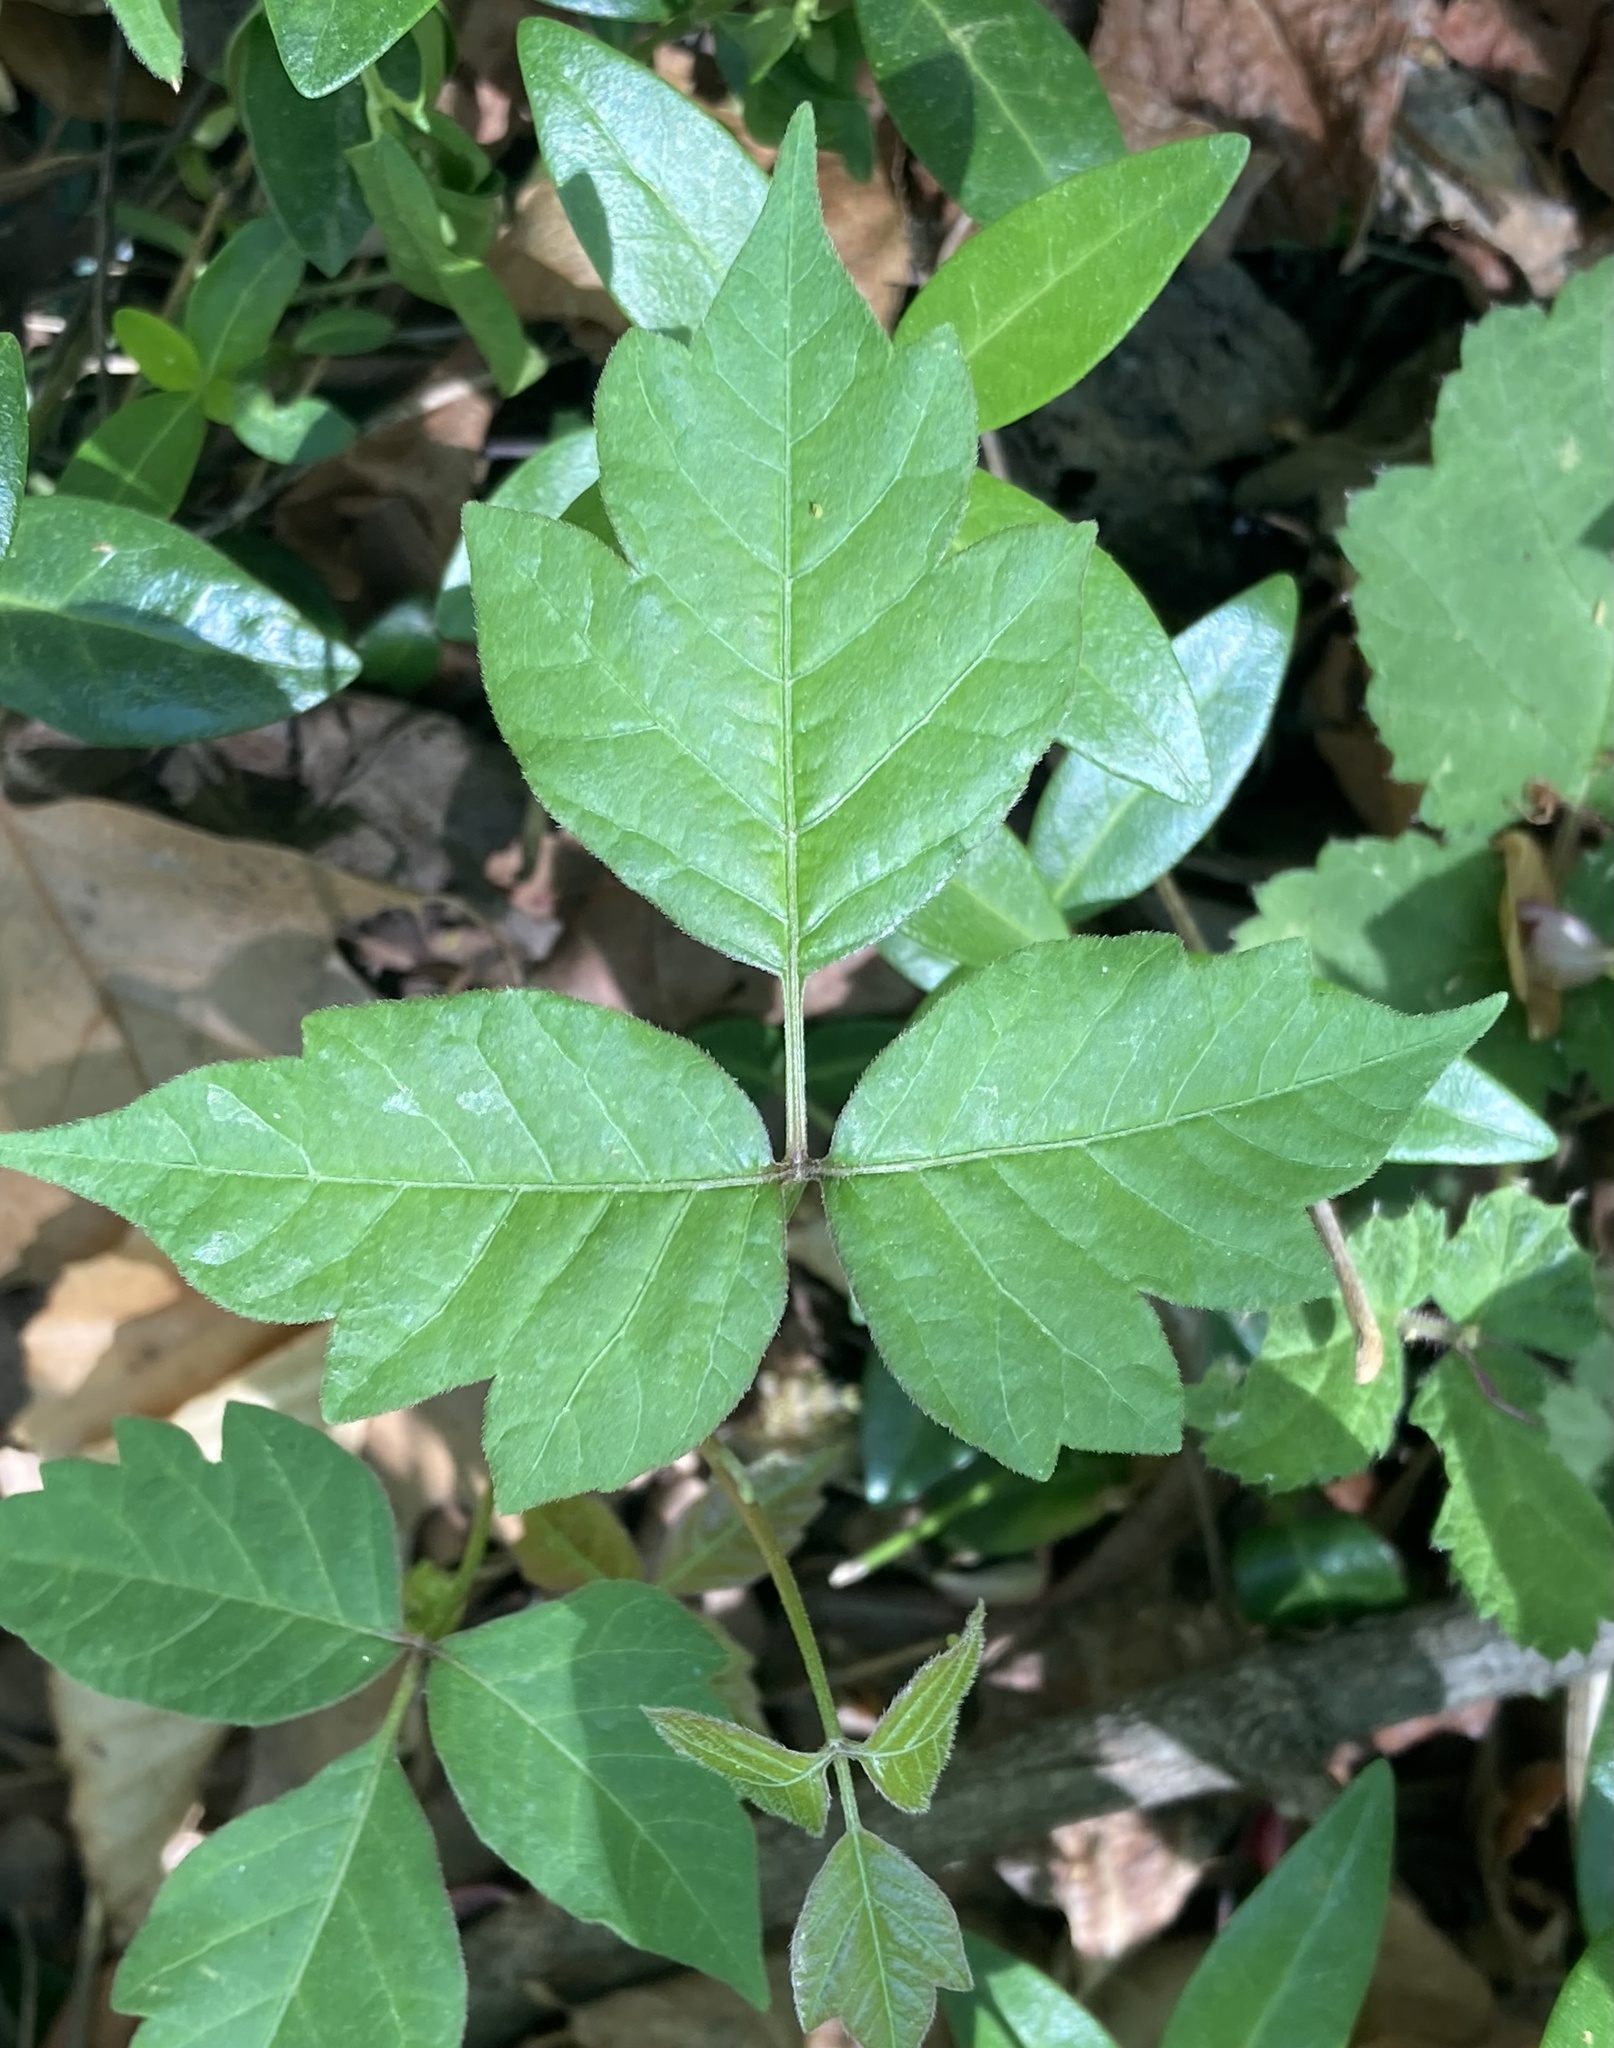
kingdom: Plantae
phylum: Tracheophyta
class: Magnoliopsida
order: Sapindales
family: Anacardiaceae
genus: Toxicodendron
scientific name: Toxicodendron radicans
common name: Poison ivy
